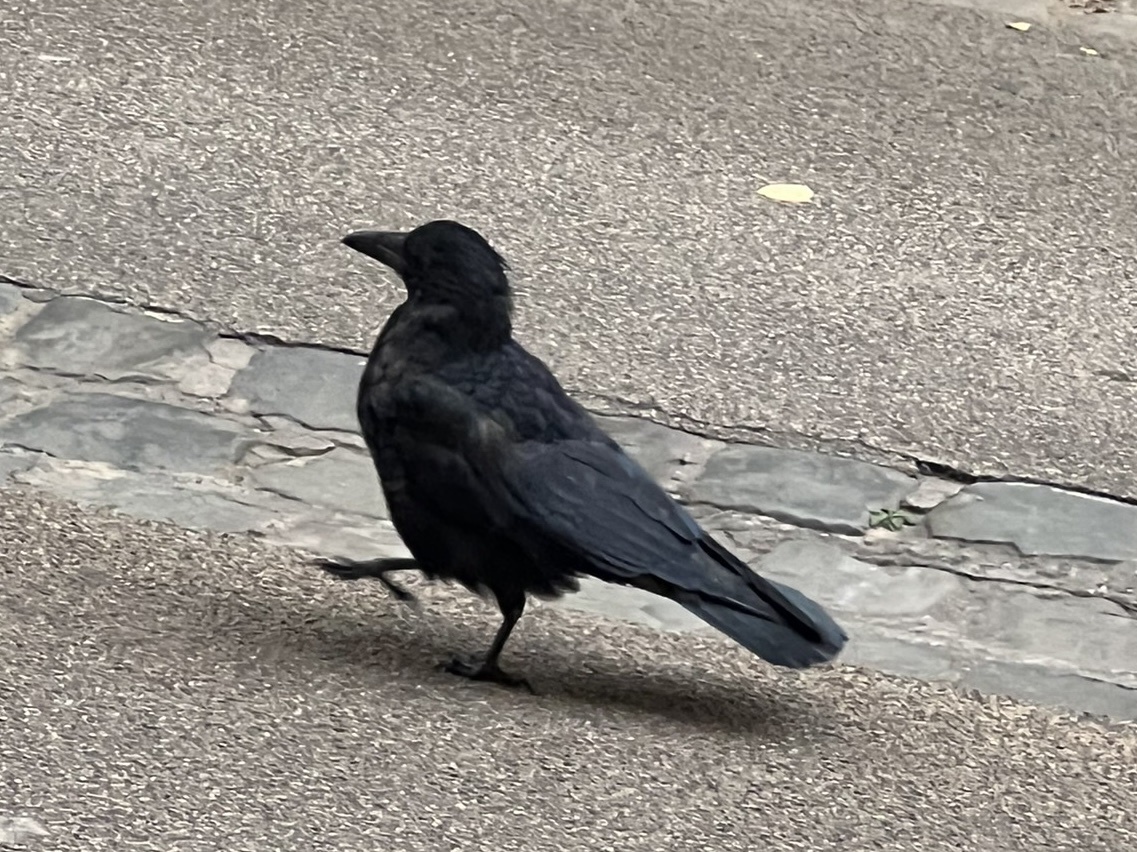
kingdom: Animalia
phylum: Chordata
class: Aves
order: Passeriformes
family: Corvidae
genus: Corvus
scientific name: Corvus corone
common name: Carrion crow
